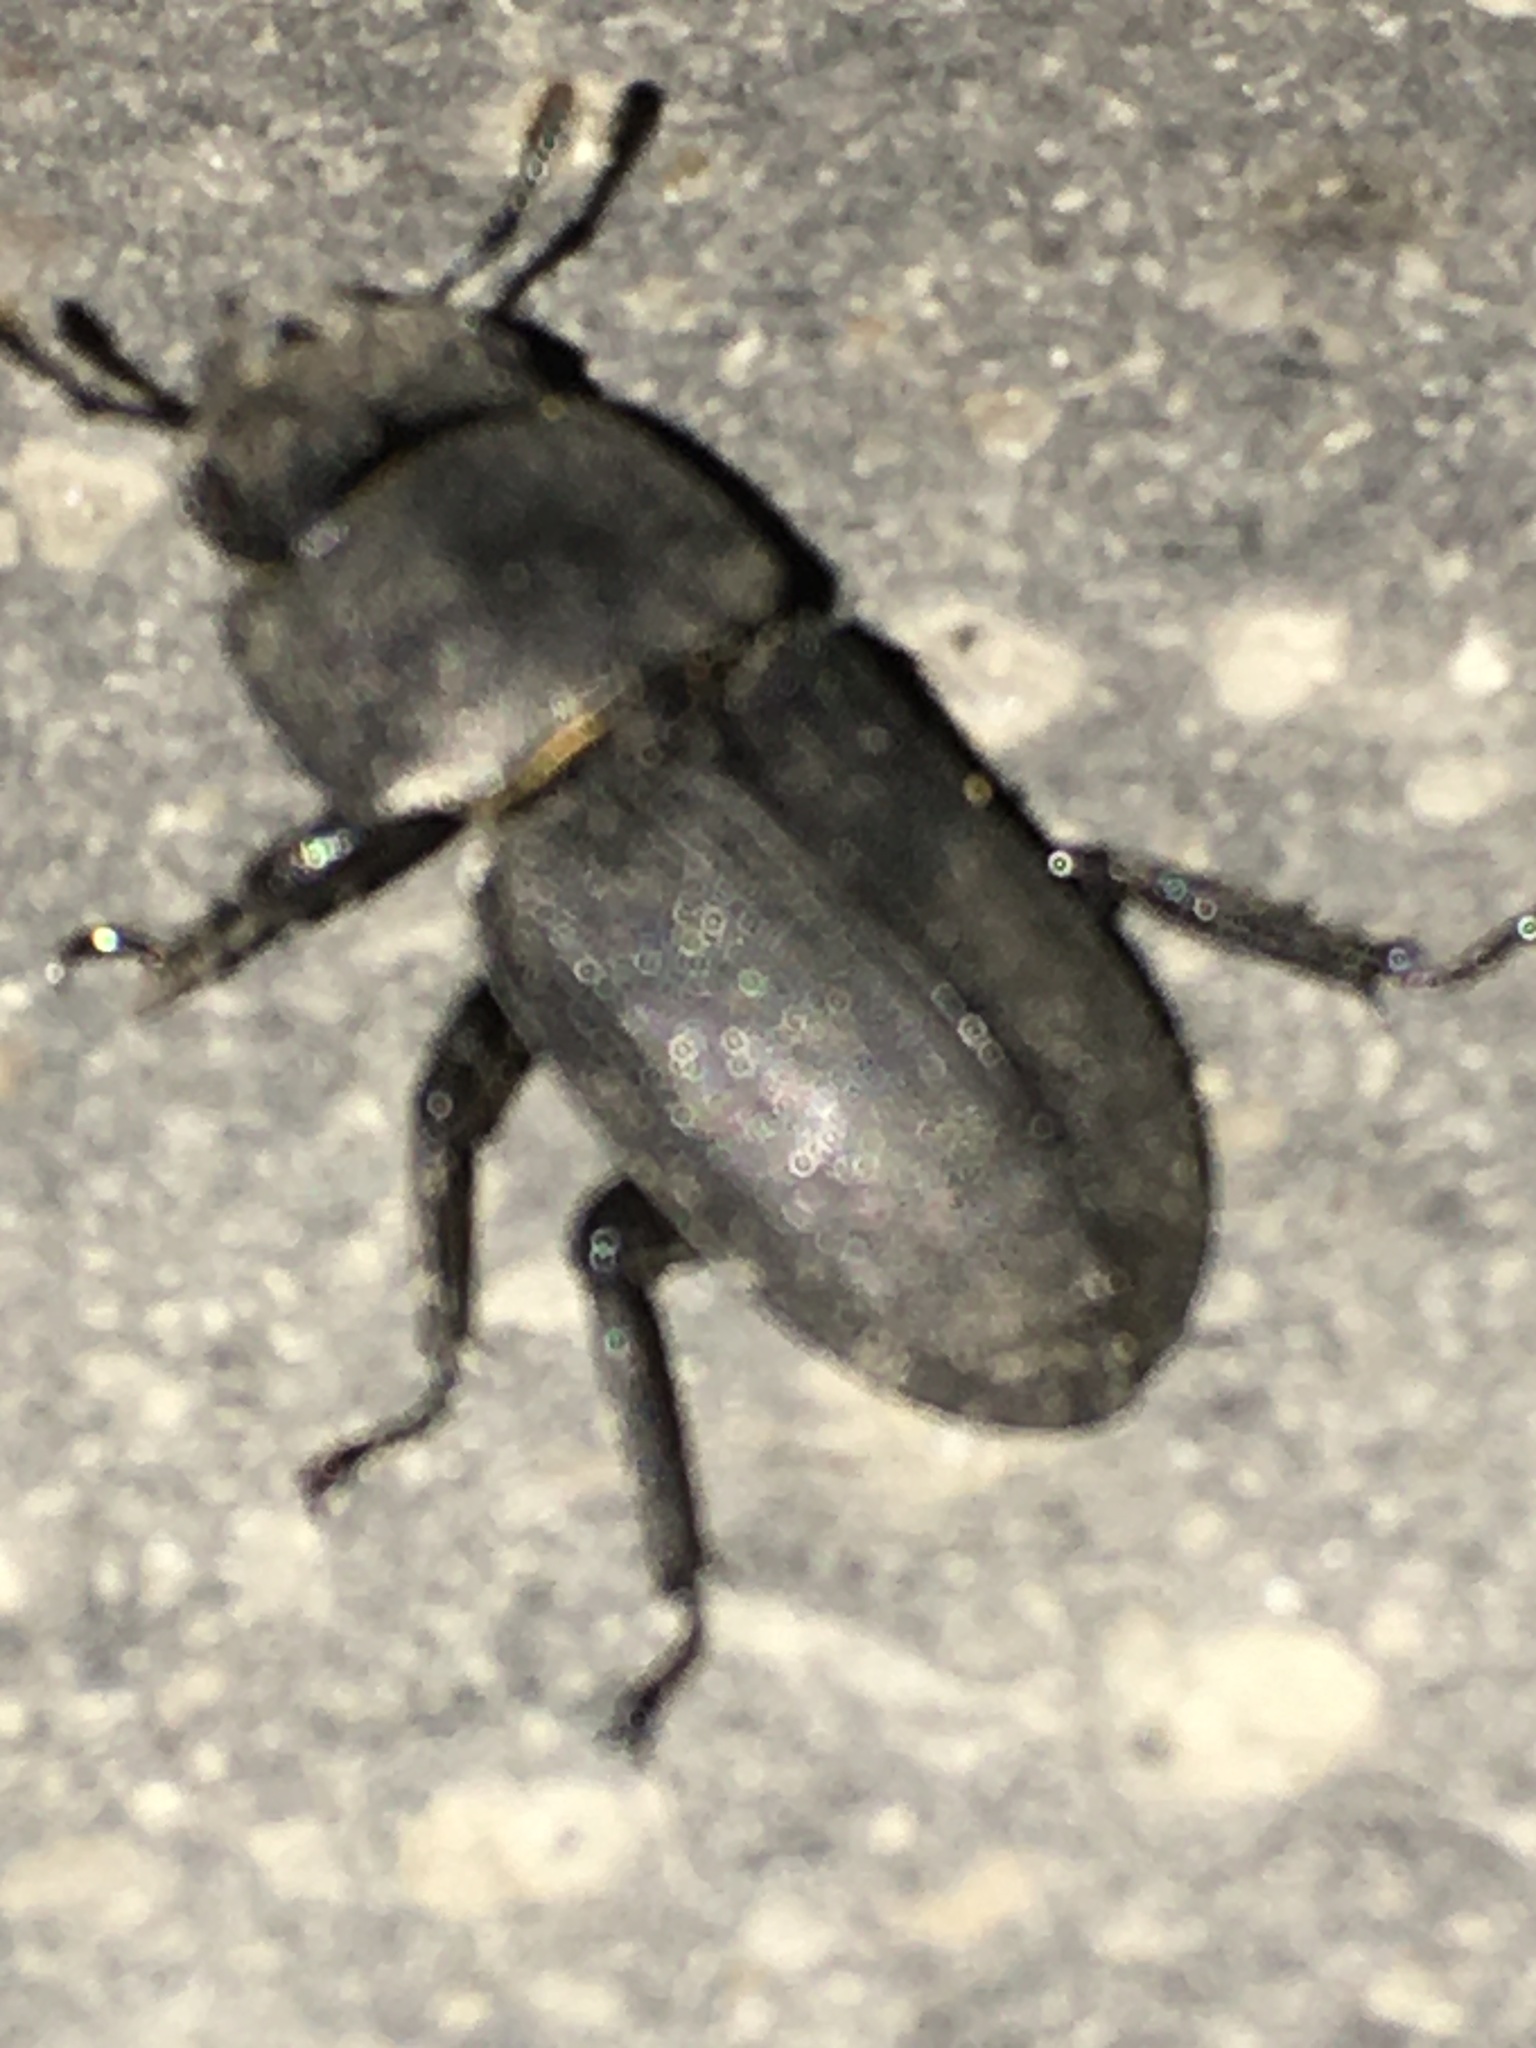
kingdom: Animalia
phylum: Arthropoda
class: Insecta
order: Coleoptera
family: Lucanidae
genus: Dorcus
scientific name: Dorcus parallelipipedus
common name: Lesser stag beetle
